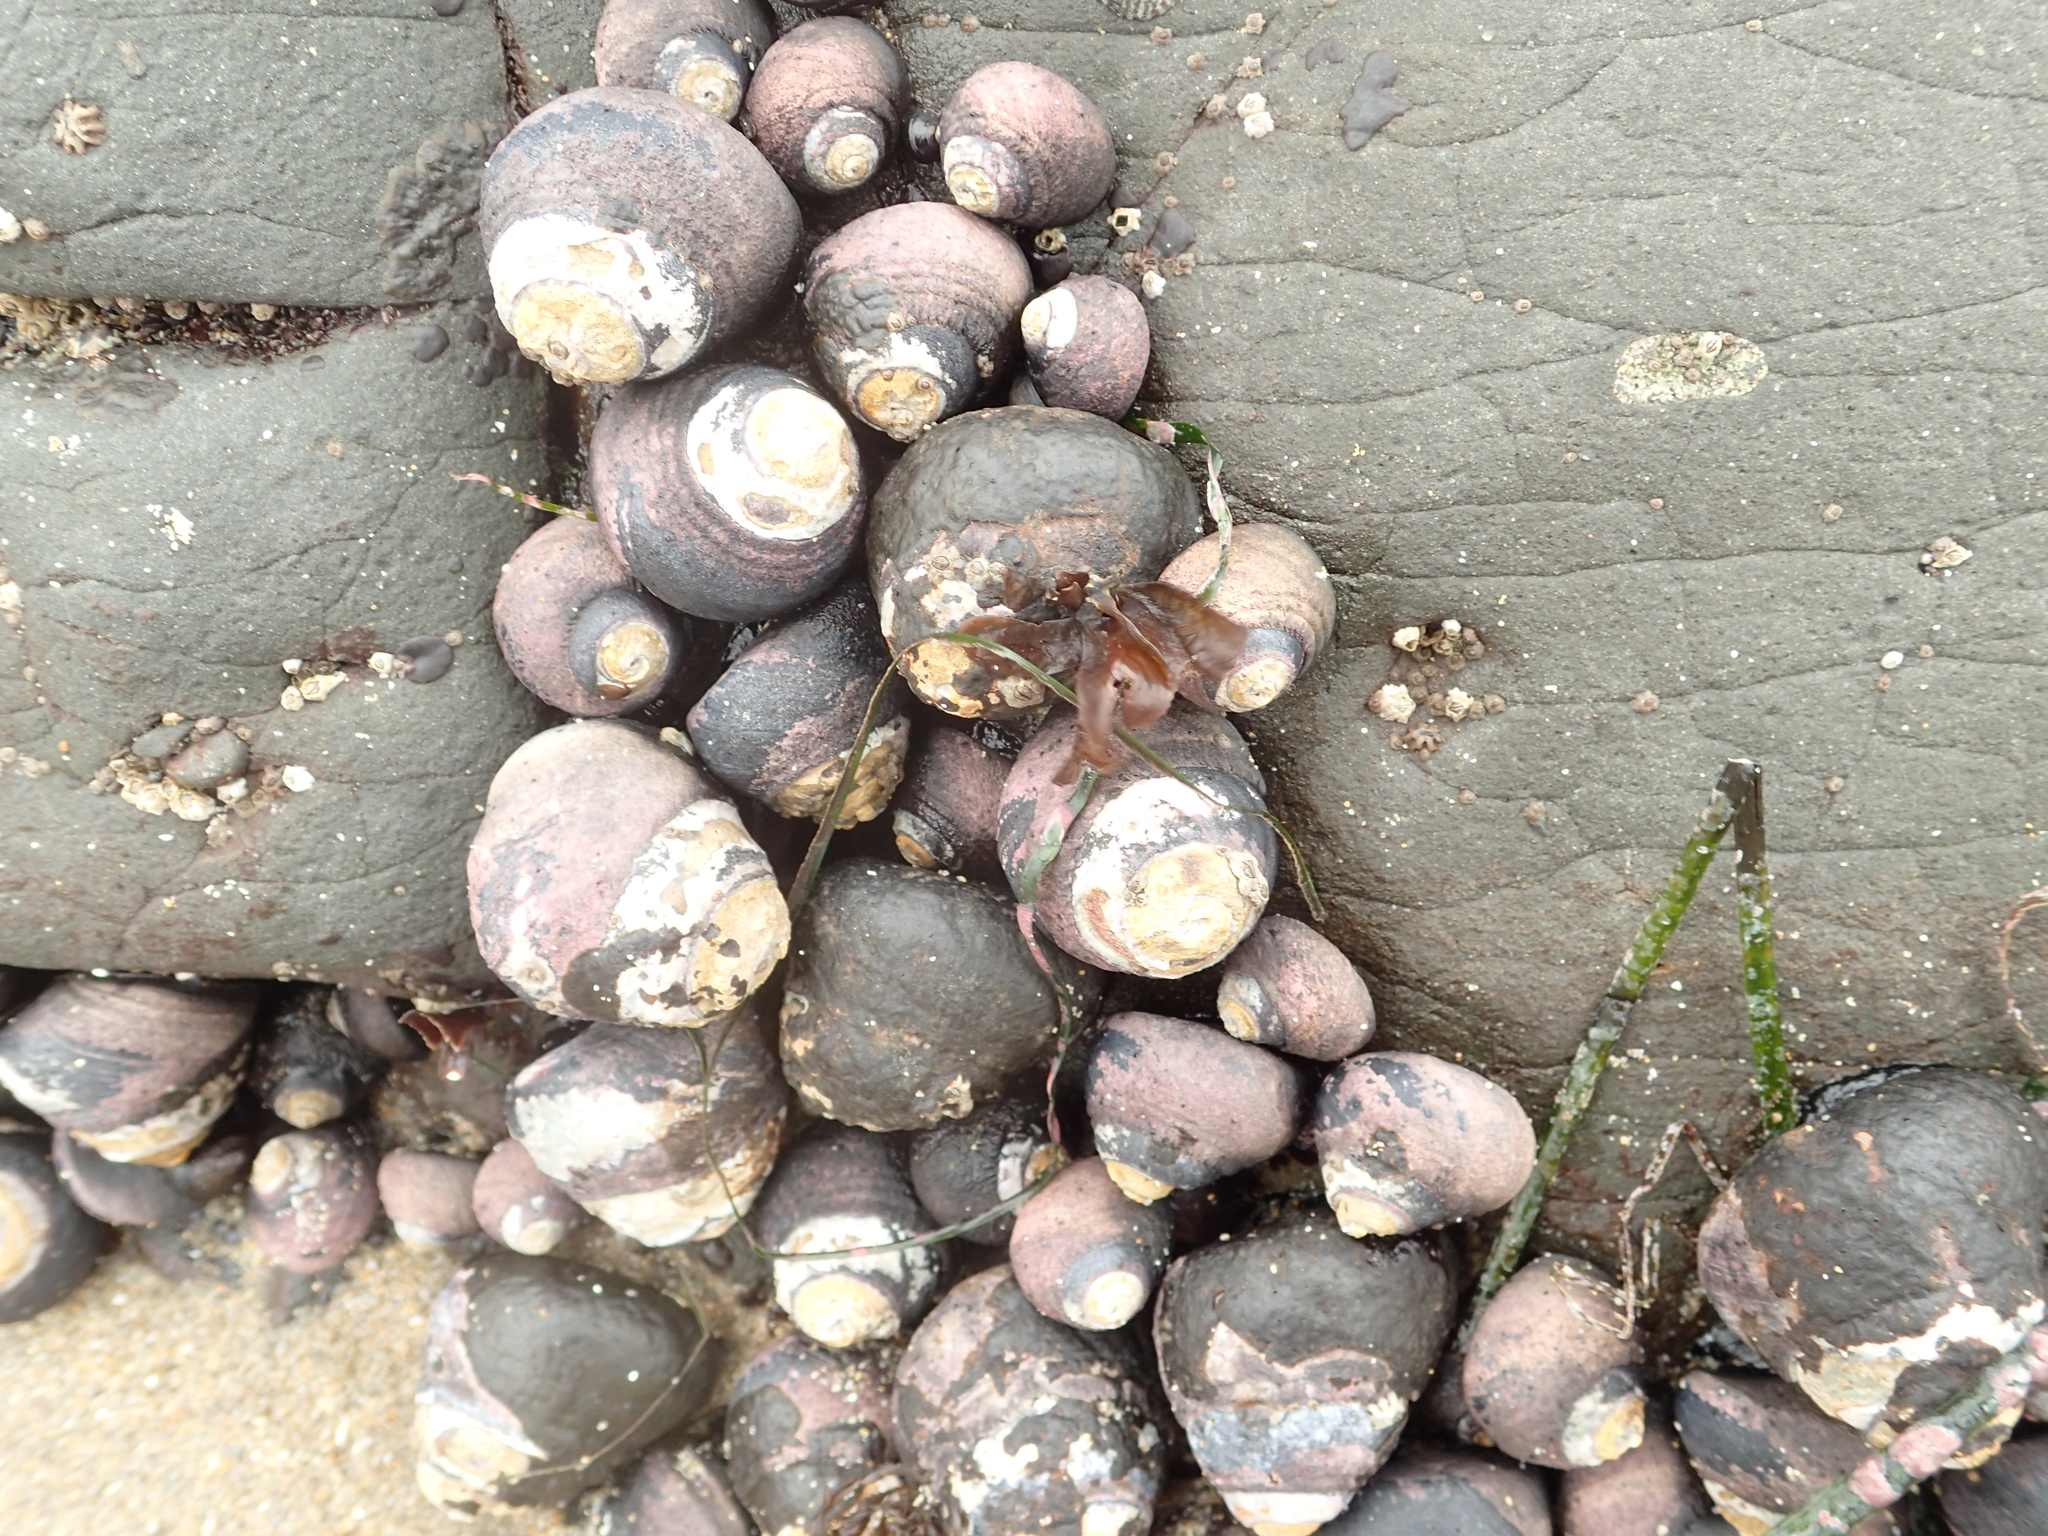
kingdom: Animalia
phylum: Mollusca
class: Gastropoda
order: Trochida
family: Tegulidae
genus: Tegula
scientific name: Tegula funebralis
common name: Black tegula
